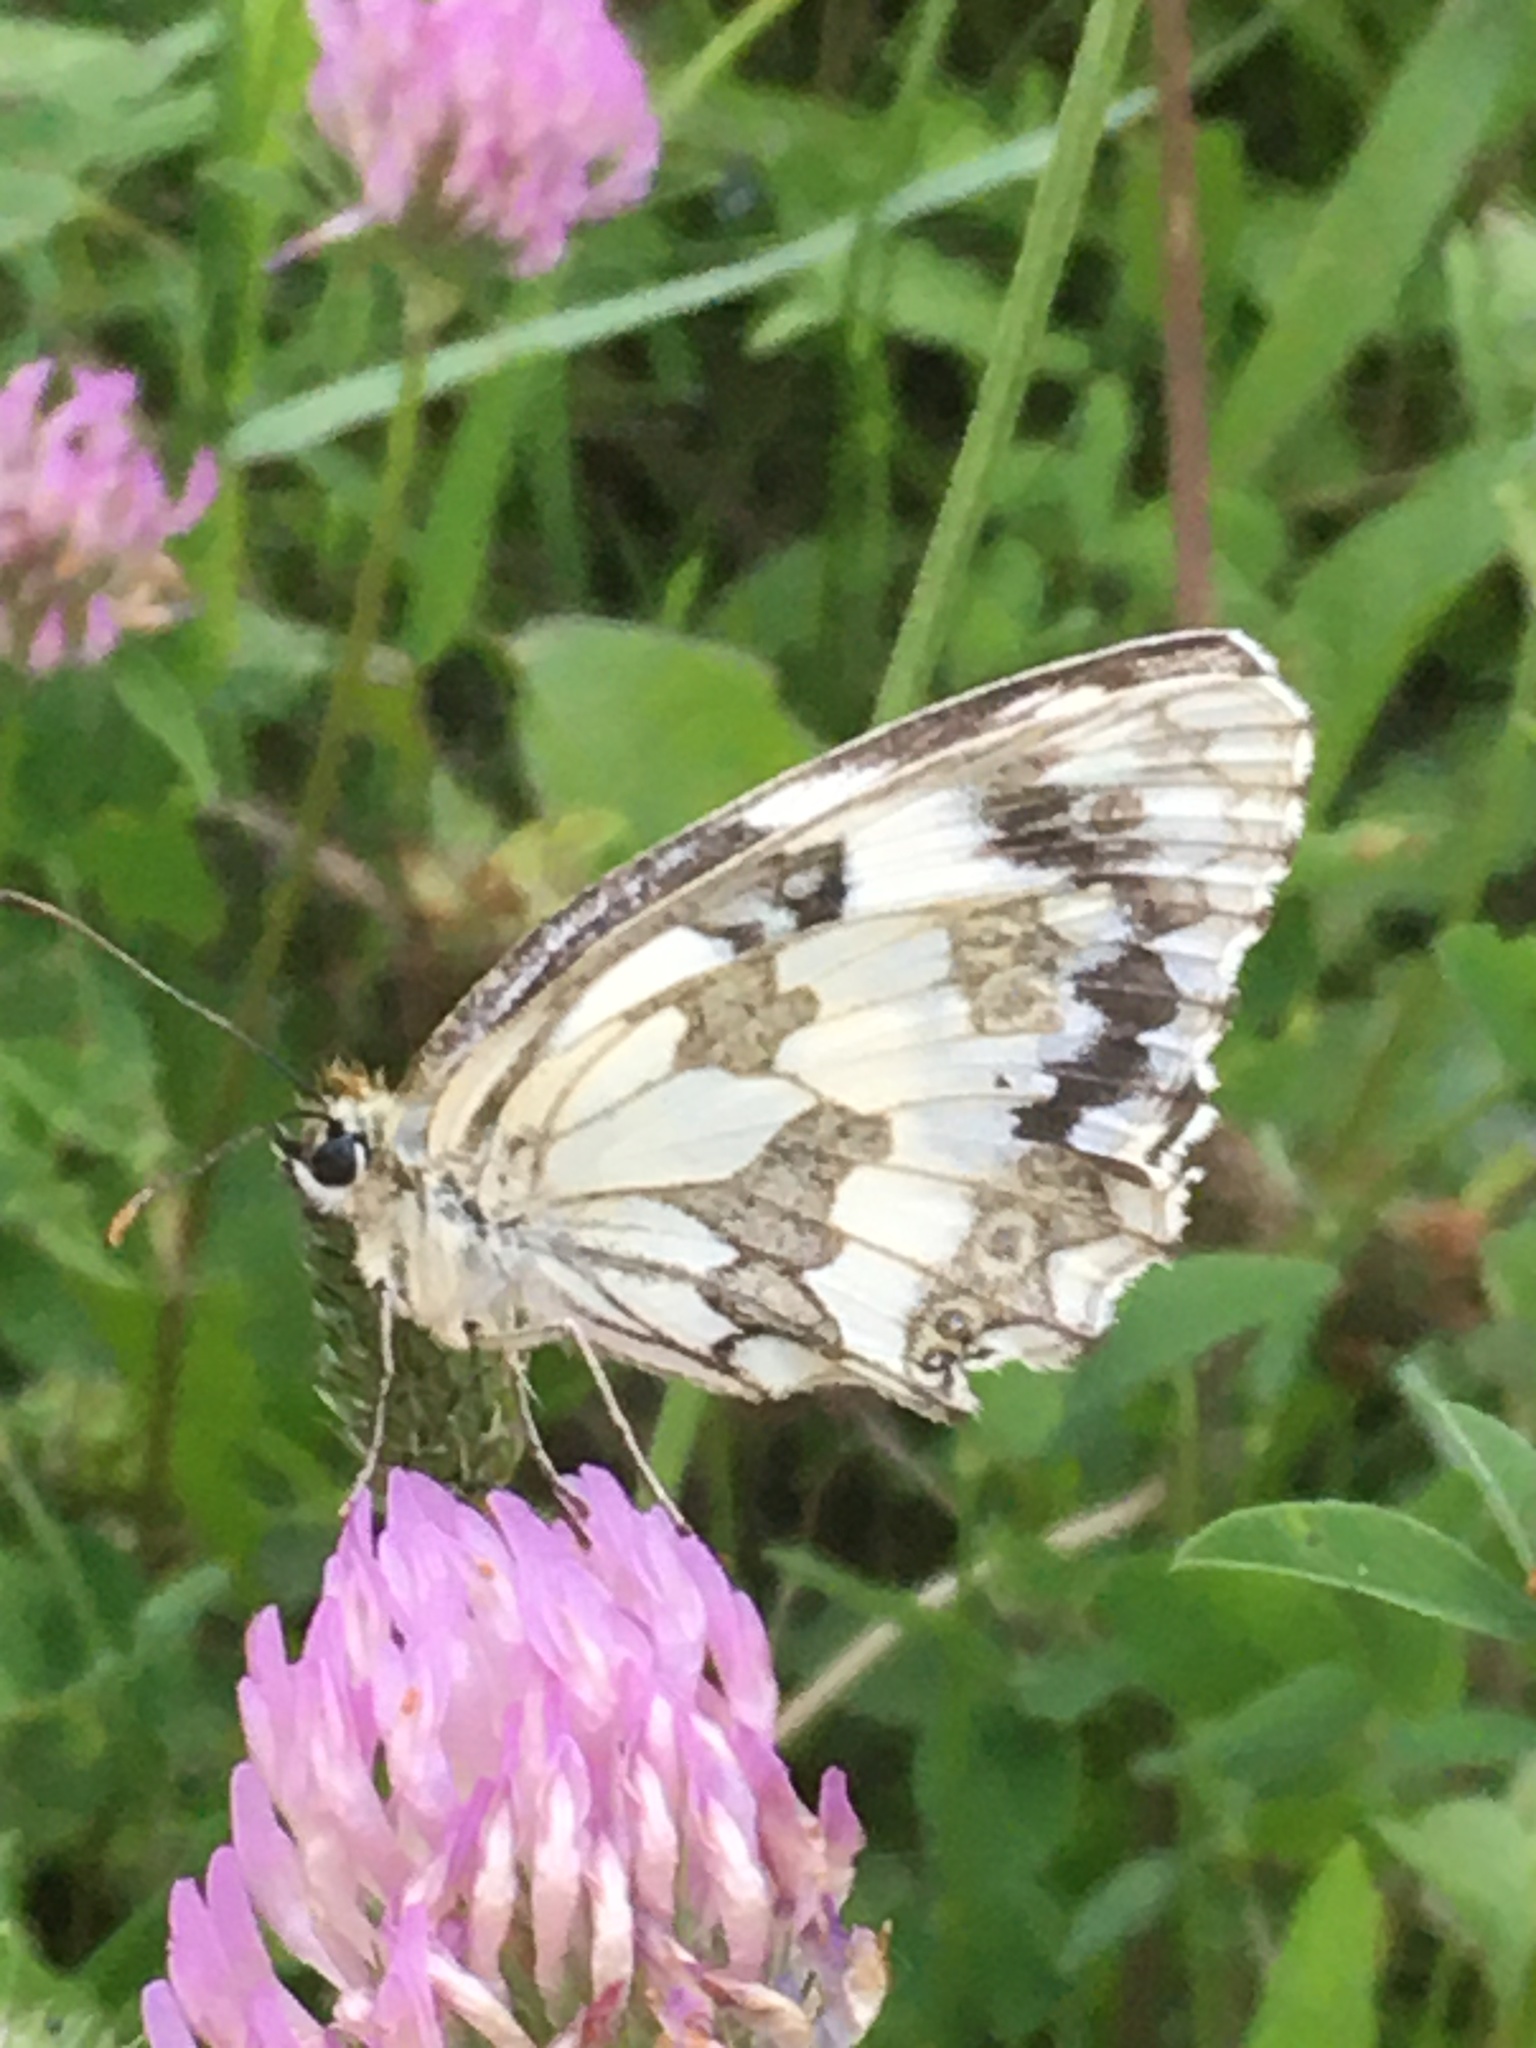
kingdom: Animalia
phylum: Arthropoda
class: Insecta
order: Lepidoptera
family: Nymphalidae
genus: Melanargia
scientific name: Melanargia galathea
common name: Marbled white
